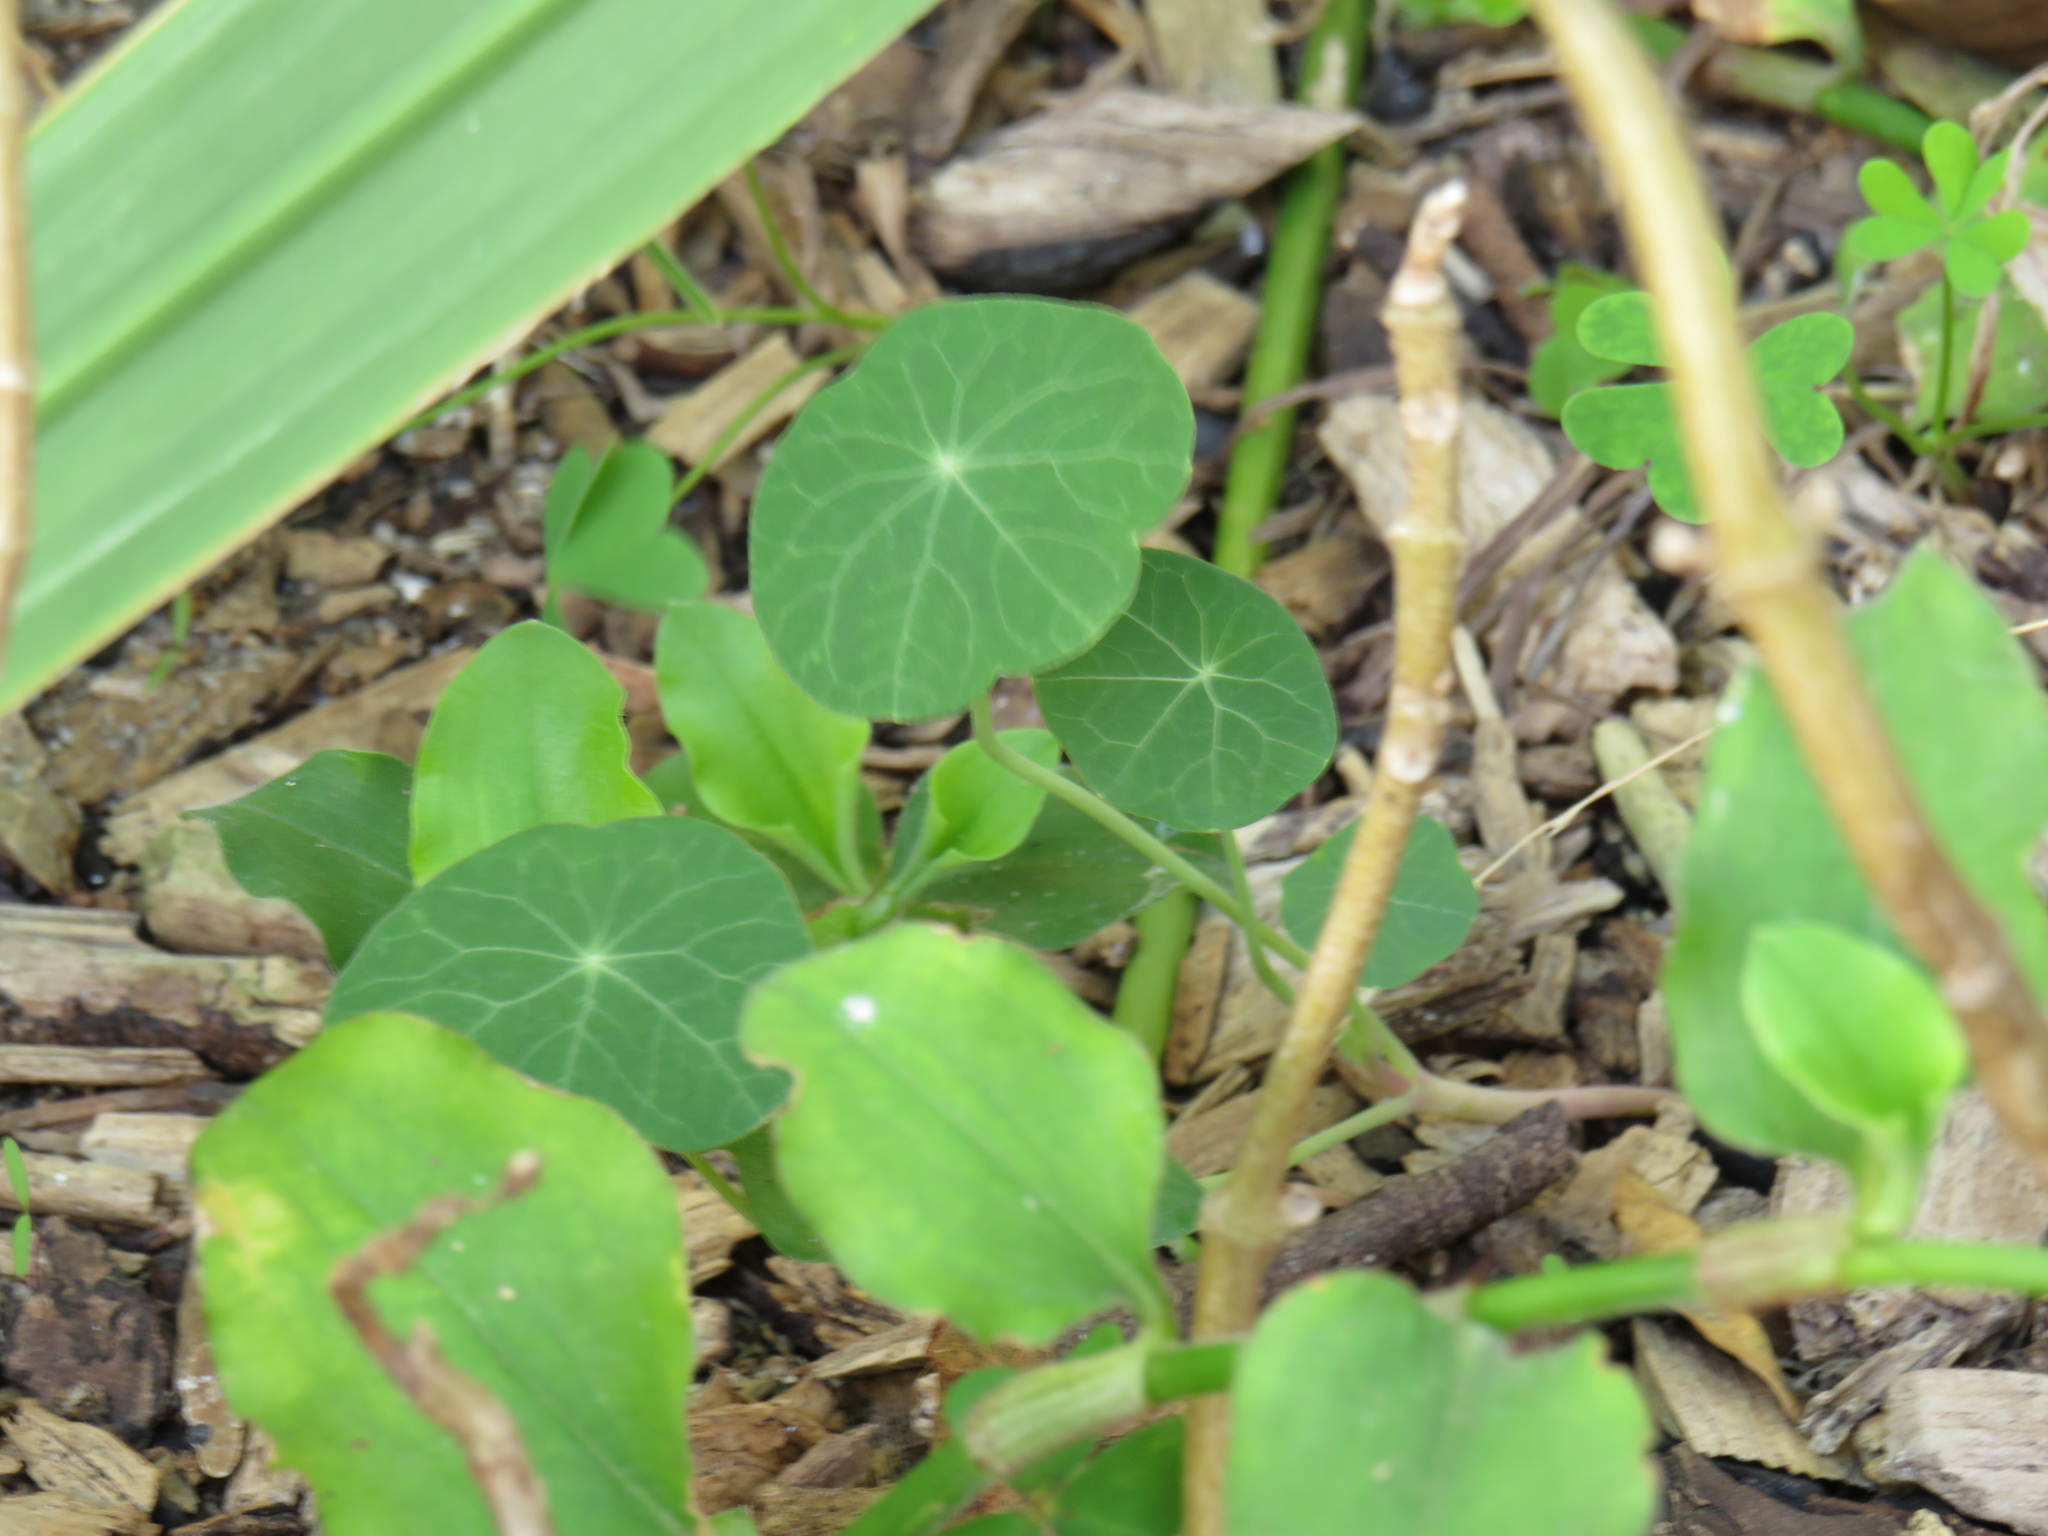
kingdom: Plantae
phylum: Tracheophyta
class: Magnoliopsida
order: Brassicales
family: Tropaeolaceae
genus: Tropaeolum
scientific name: Tropaeolum majus
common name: Nasturtium
